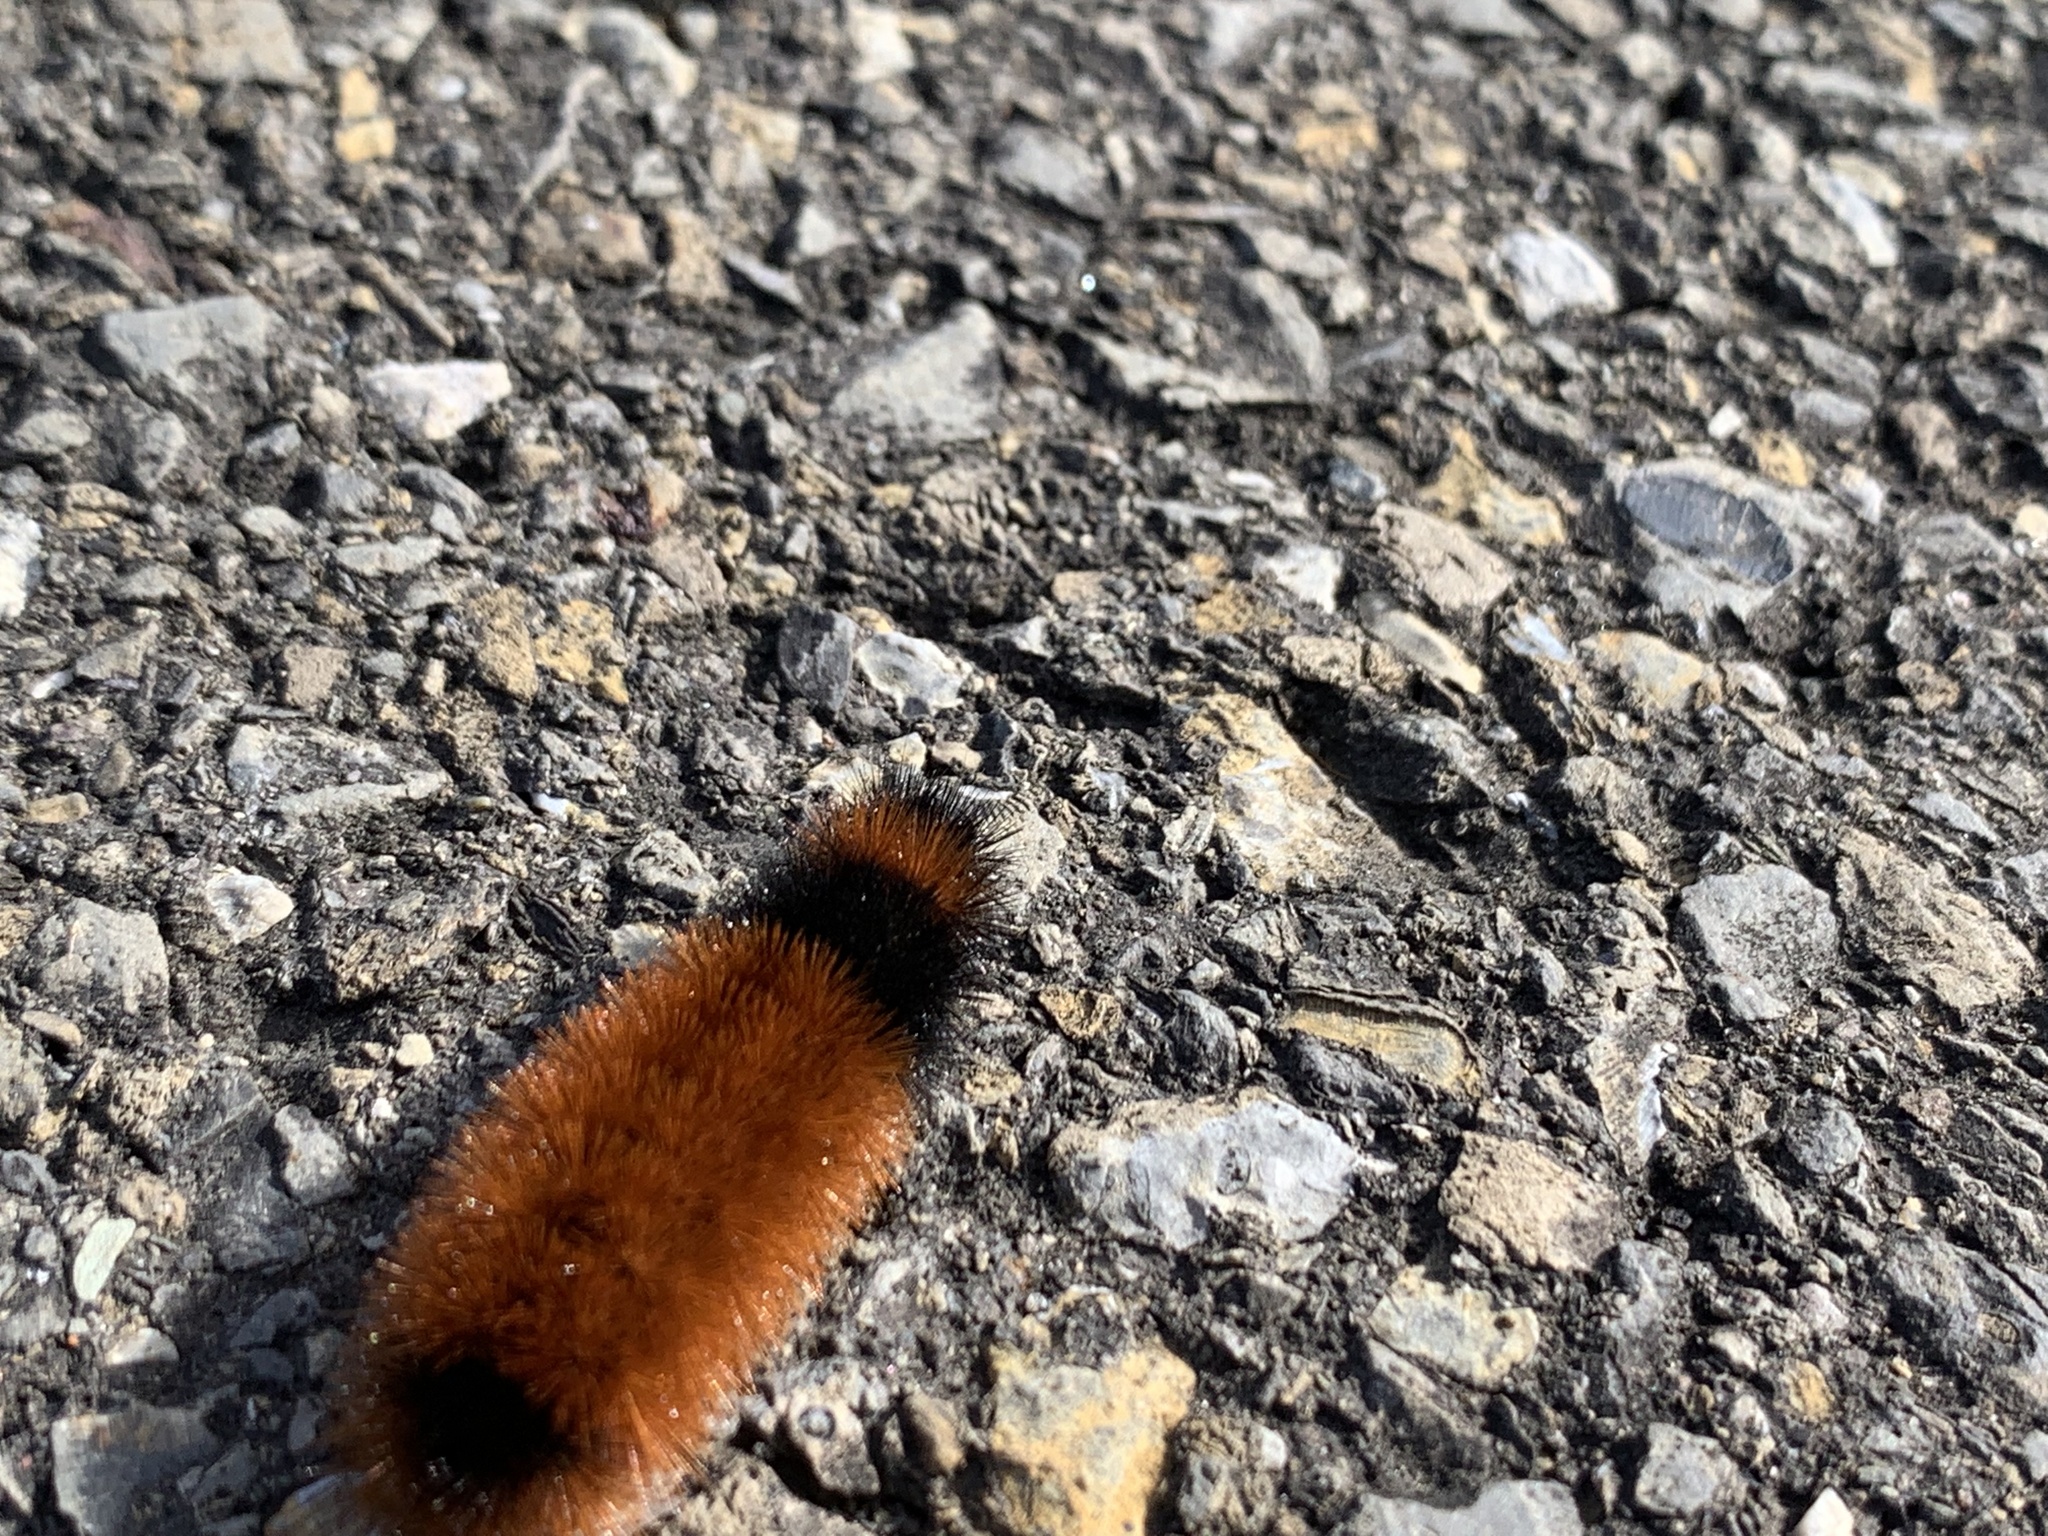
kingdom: Animalia
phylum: Arthropoda
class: Insecta
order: Lepidoptera
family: Erebidae
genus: Pyrrharctia
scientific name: Pyrrharctia isabella
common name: Isabella tiger moth
